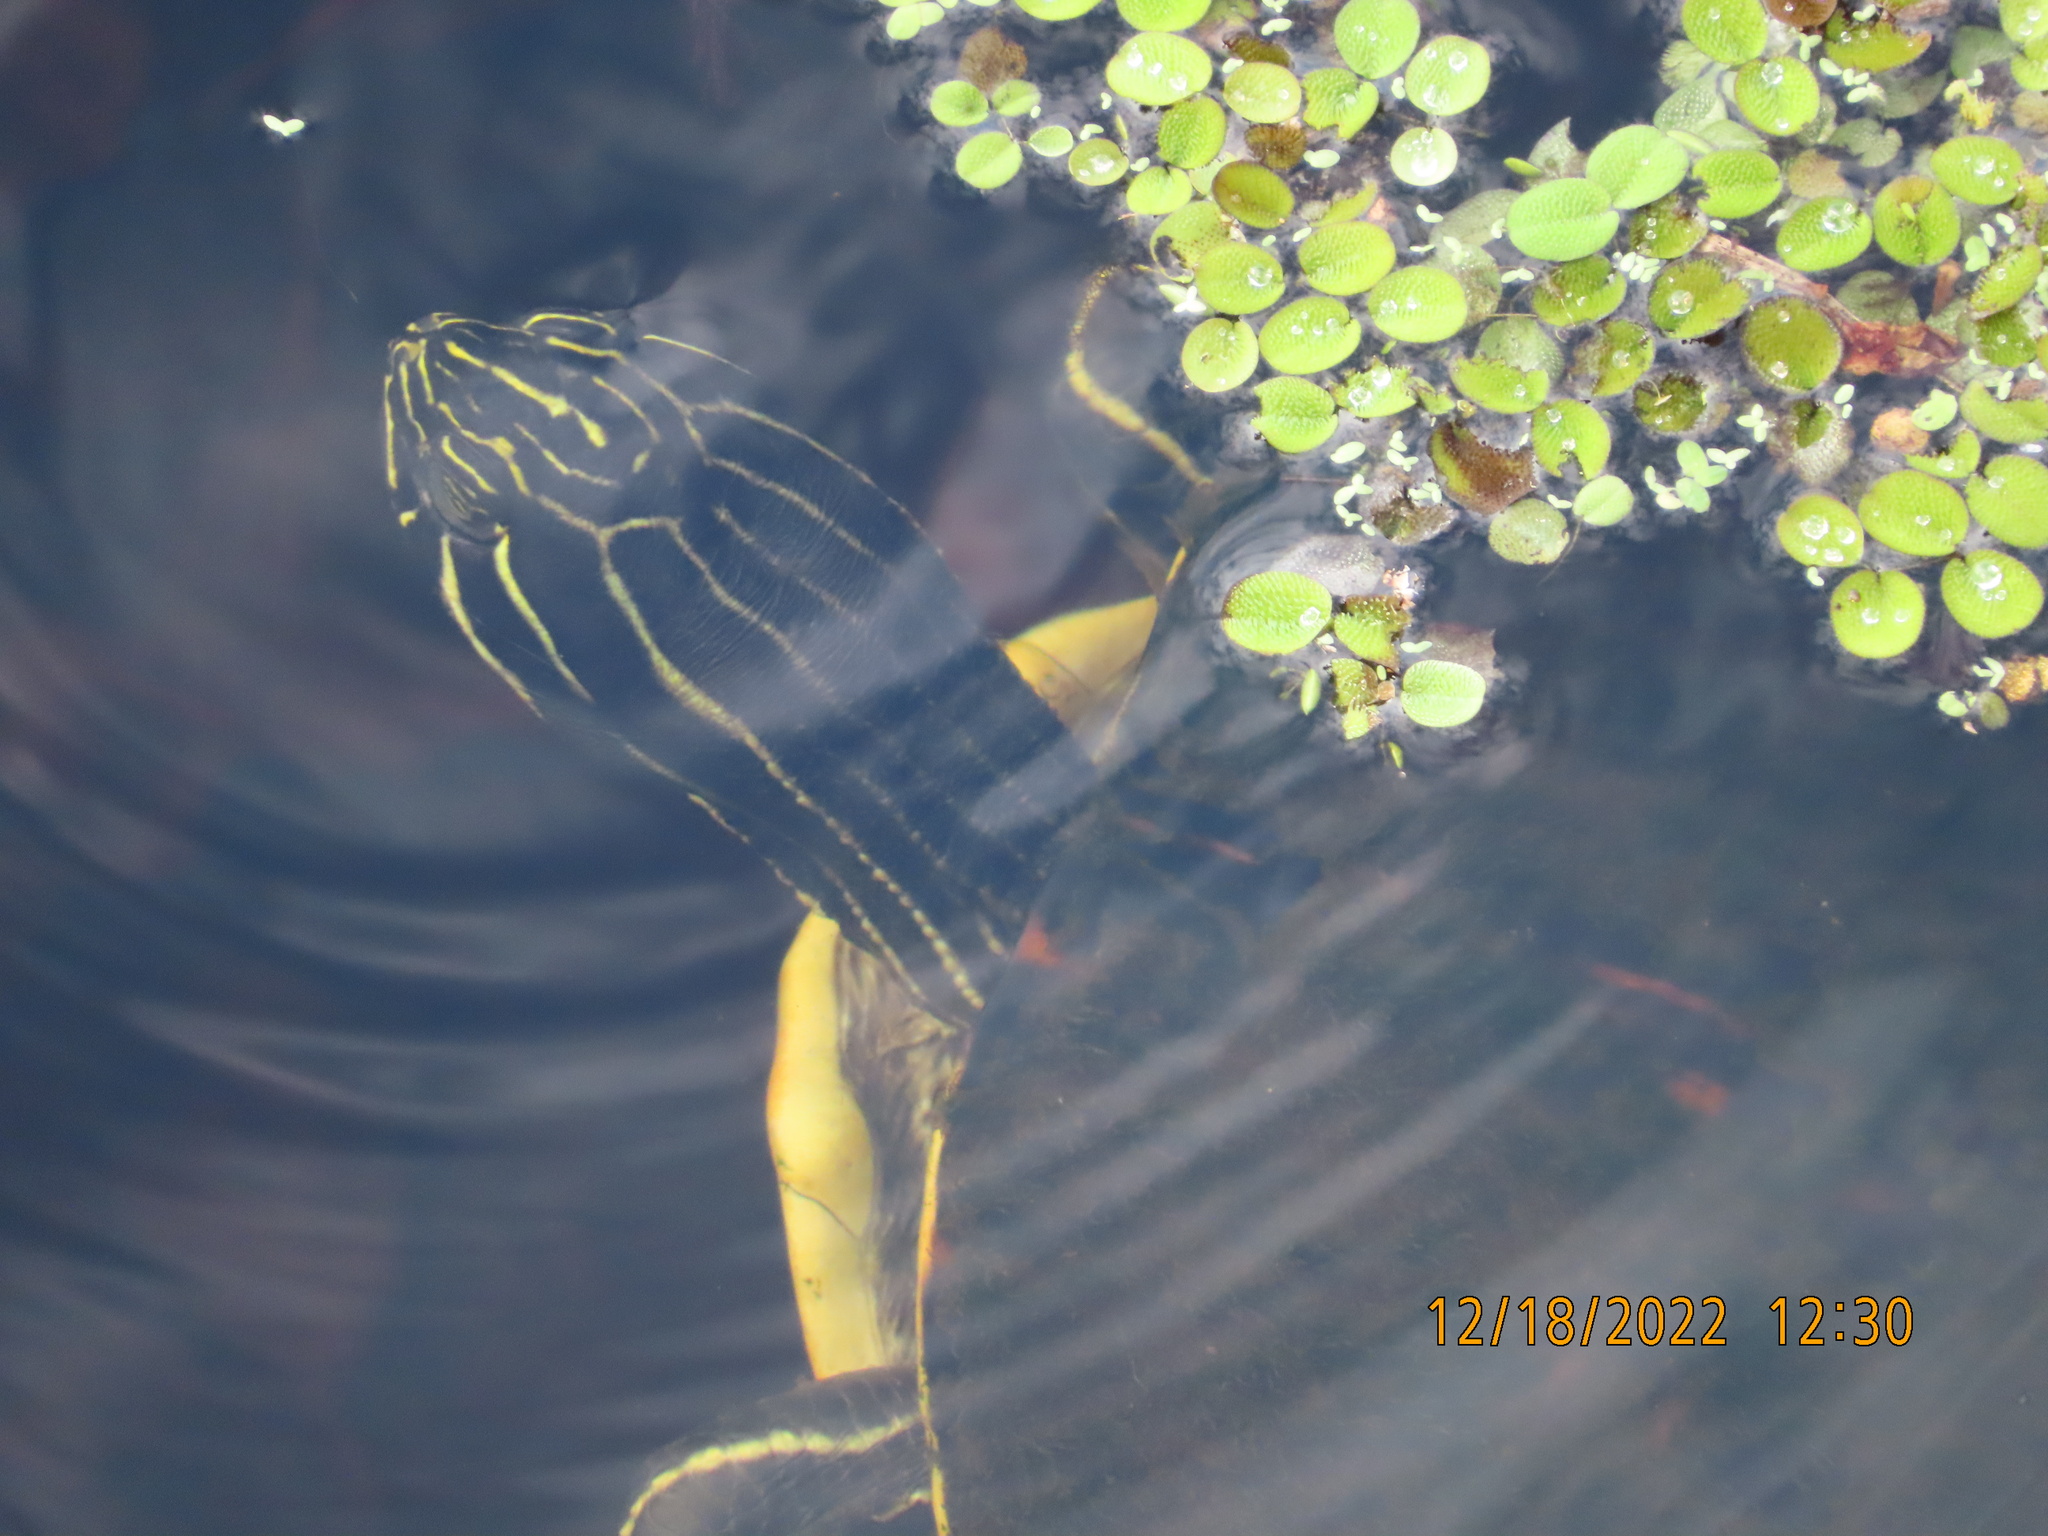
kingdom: Animalia
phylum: Chordata
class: Testudines
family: Emydidae
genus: Pseudemys
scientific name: Pseudemys peninsularis
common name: Peninsula cooter
